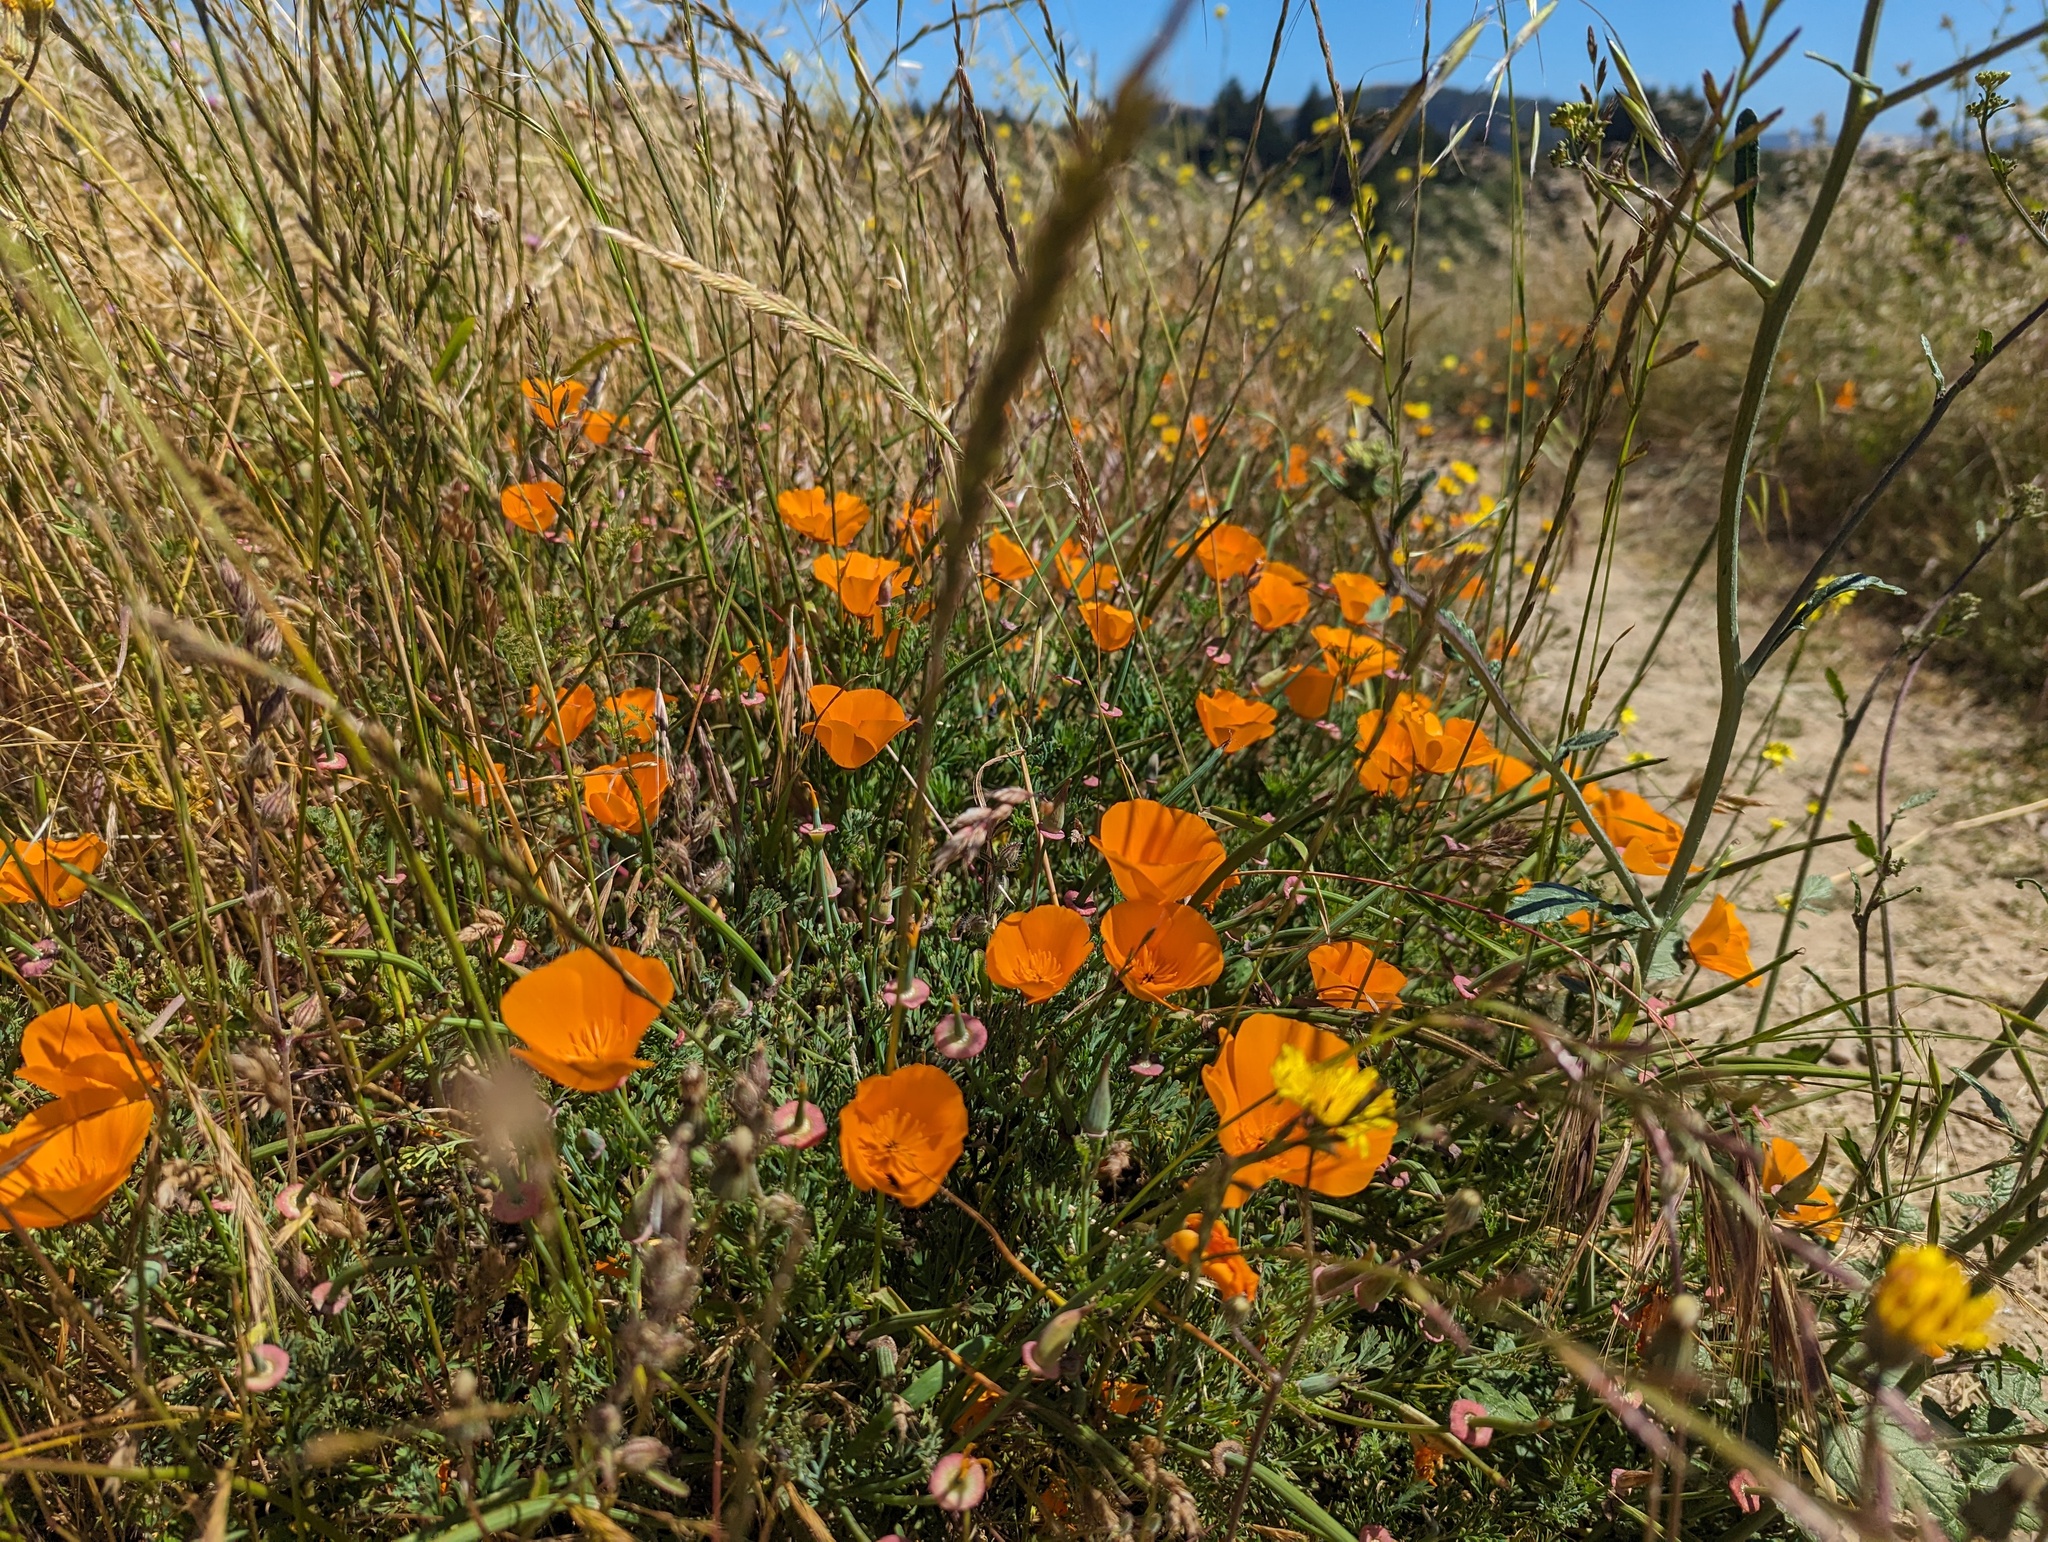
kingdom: Plantae
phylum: Tracheophyta
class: Magnoliopsida
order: Ranunculales
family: Papaveraceae
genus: Eschscholzia
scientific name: Eschscholzia californica
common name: California poppy
